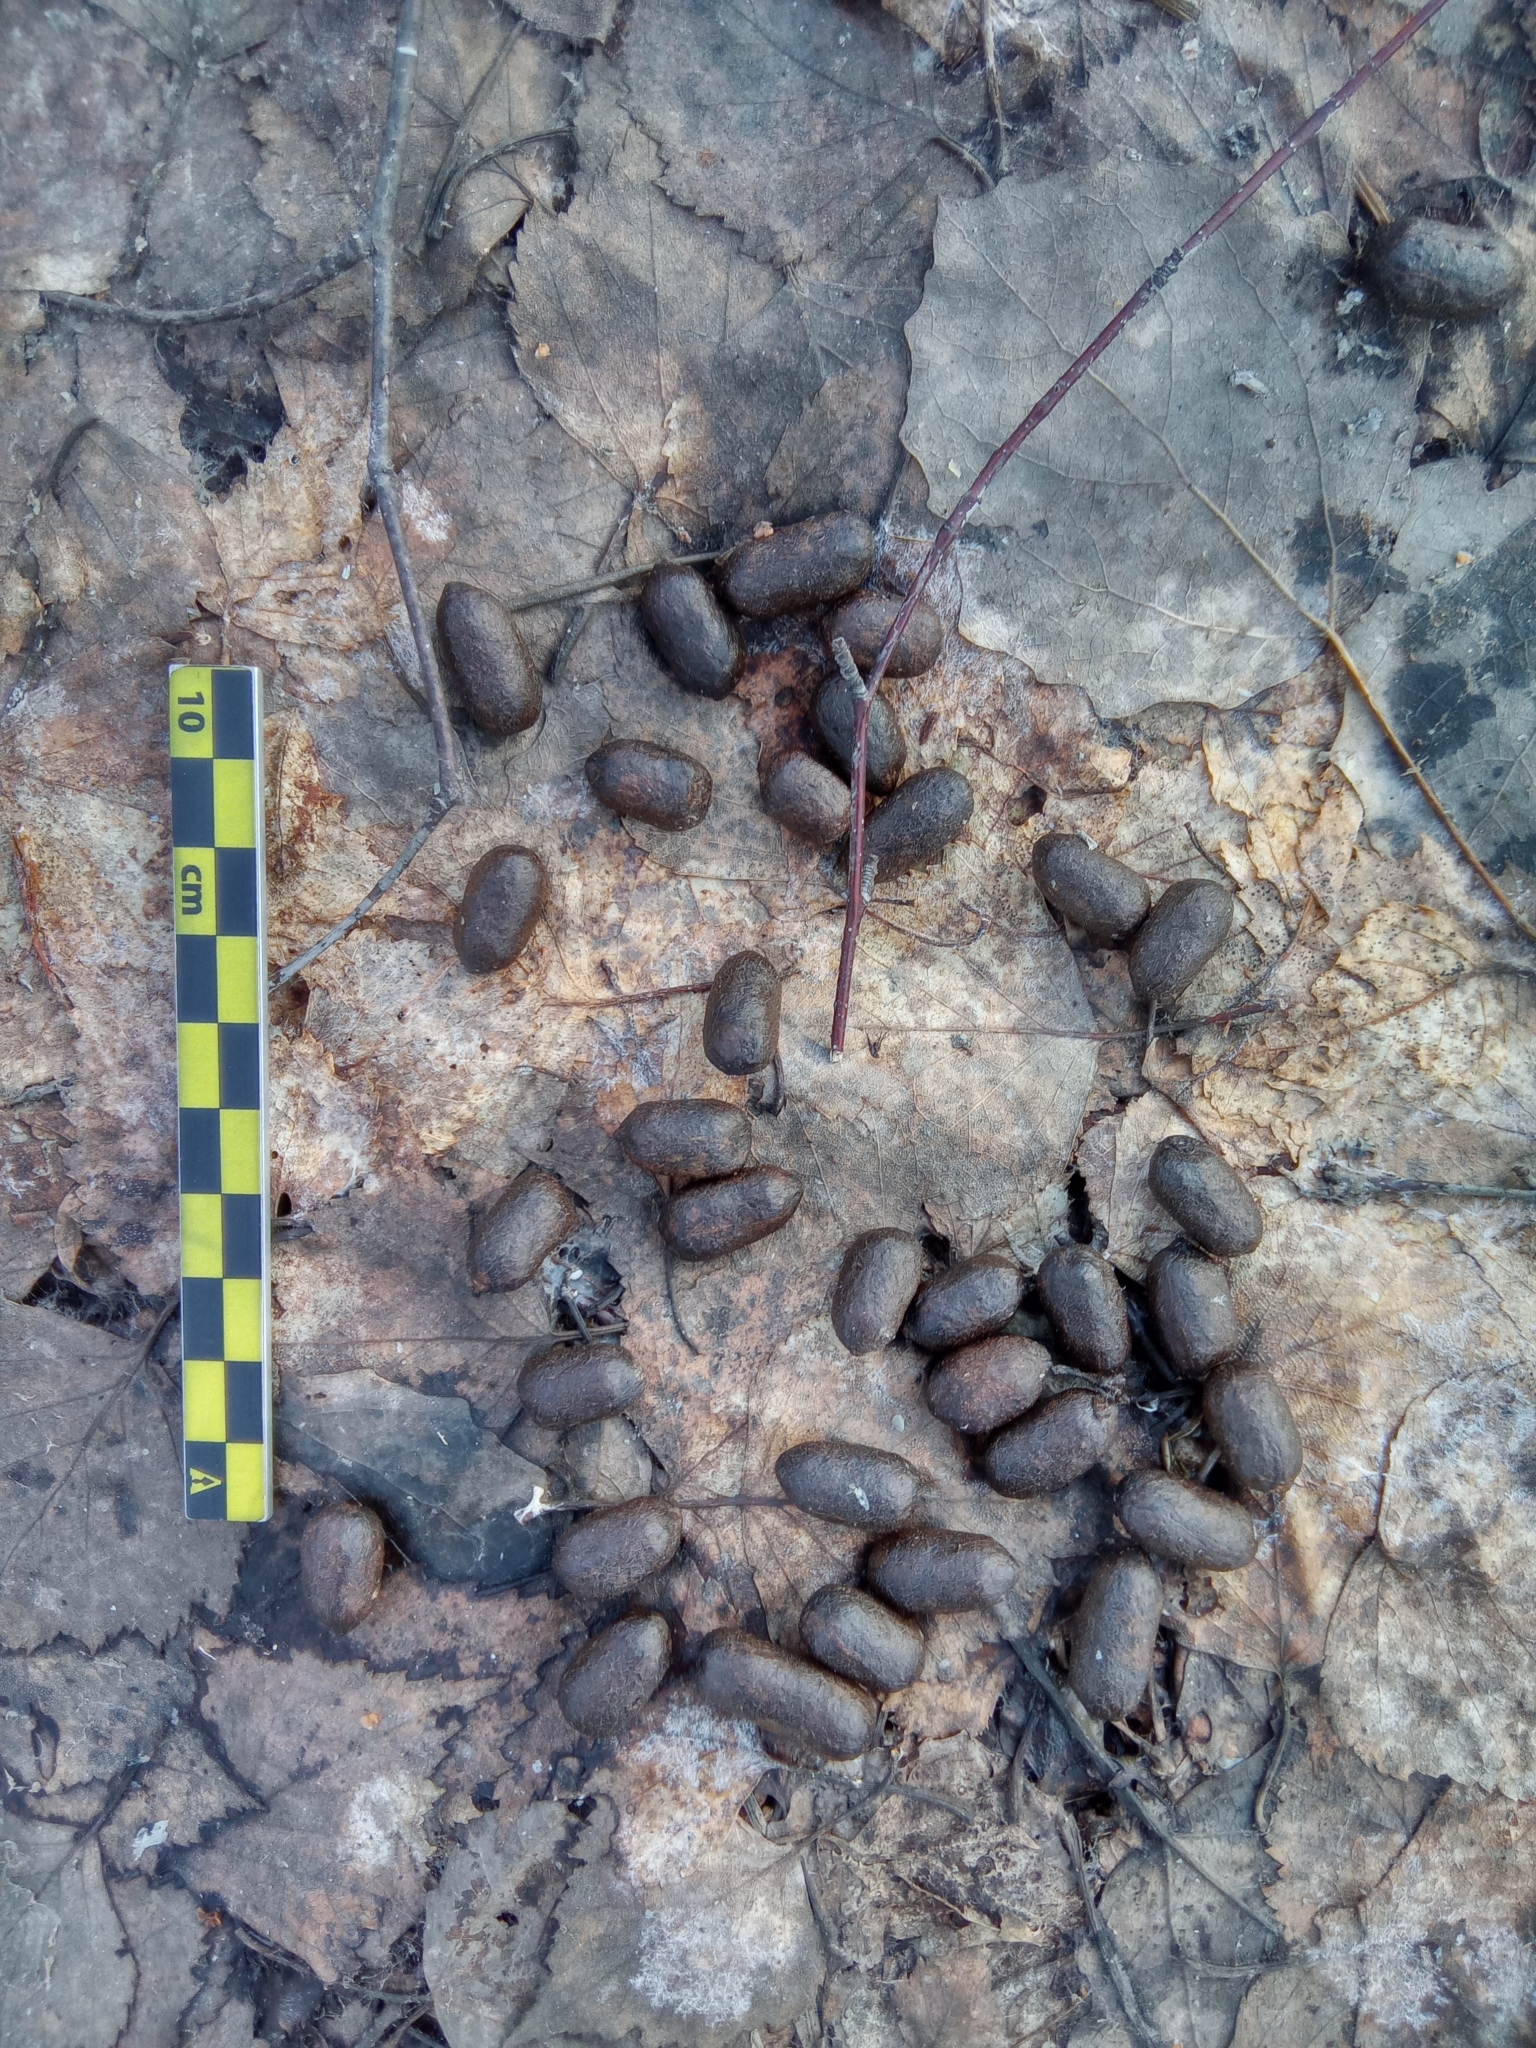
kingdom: Animalia
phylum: Chordata
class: Mammalia
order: Artiodactyla
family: Cervidae
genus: Capreolus
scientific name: Capreolus pygargus
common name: Siberian roe
